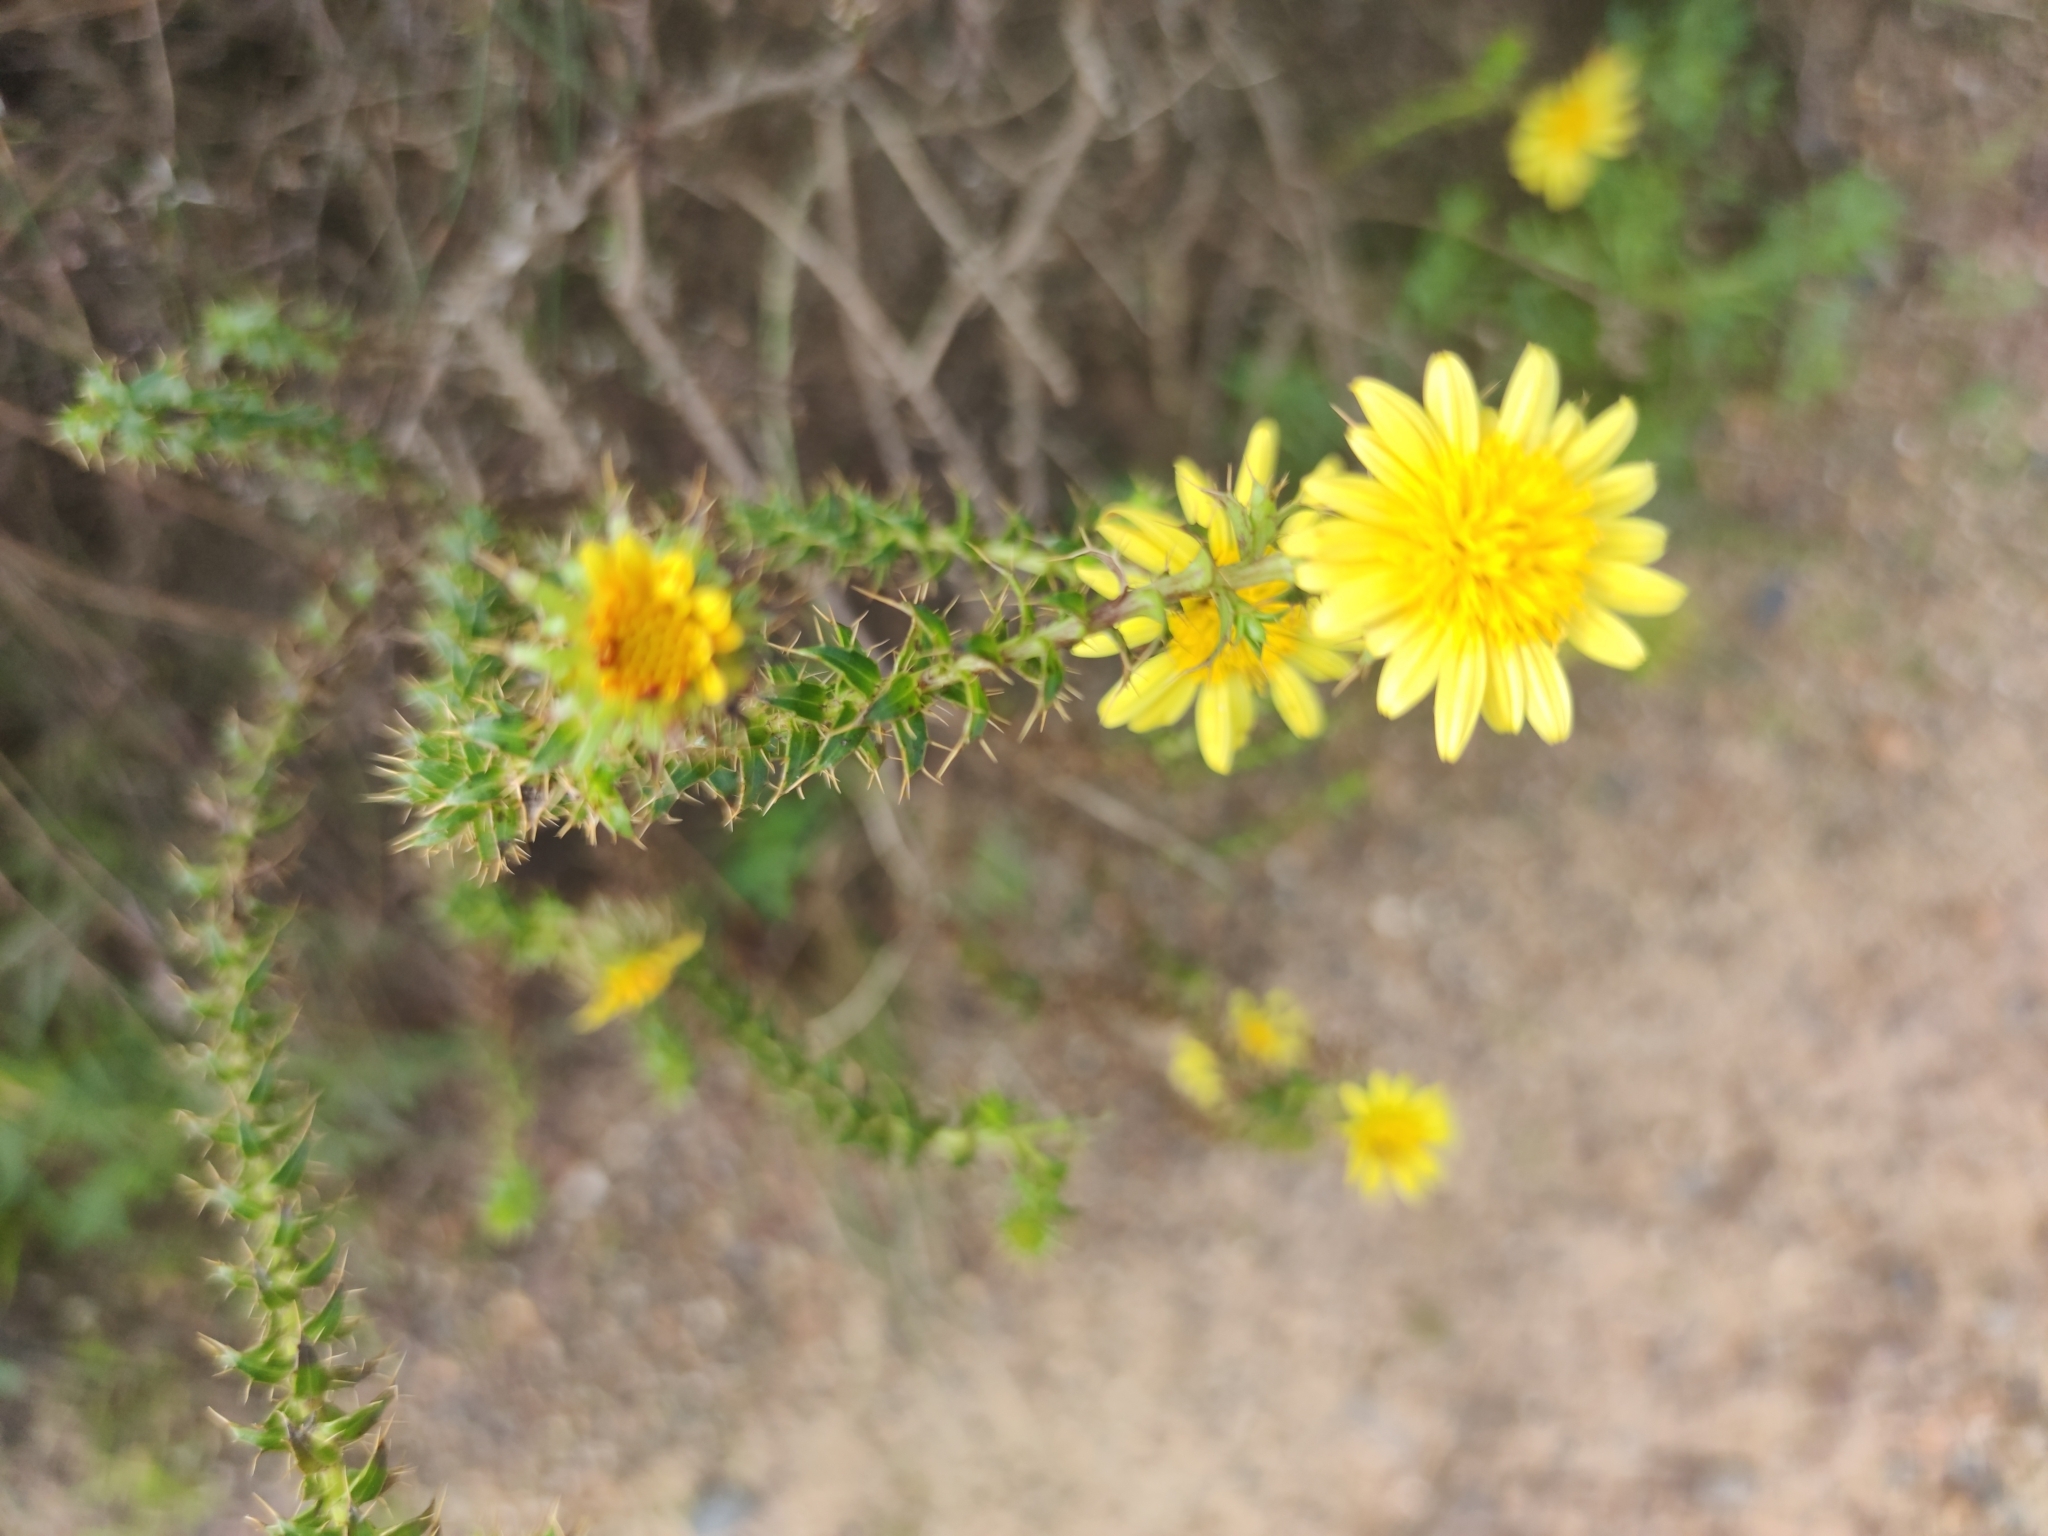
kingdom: Plantae
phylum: Tracheophyta
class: Magnoliopsida
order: Asterales
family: Asteraceae
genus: Cullumia
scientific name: Cullumia setosa
